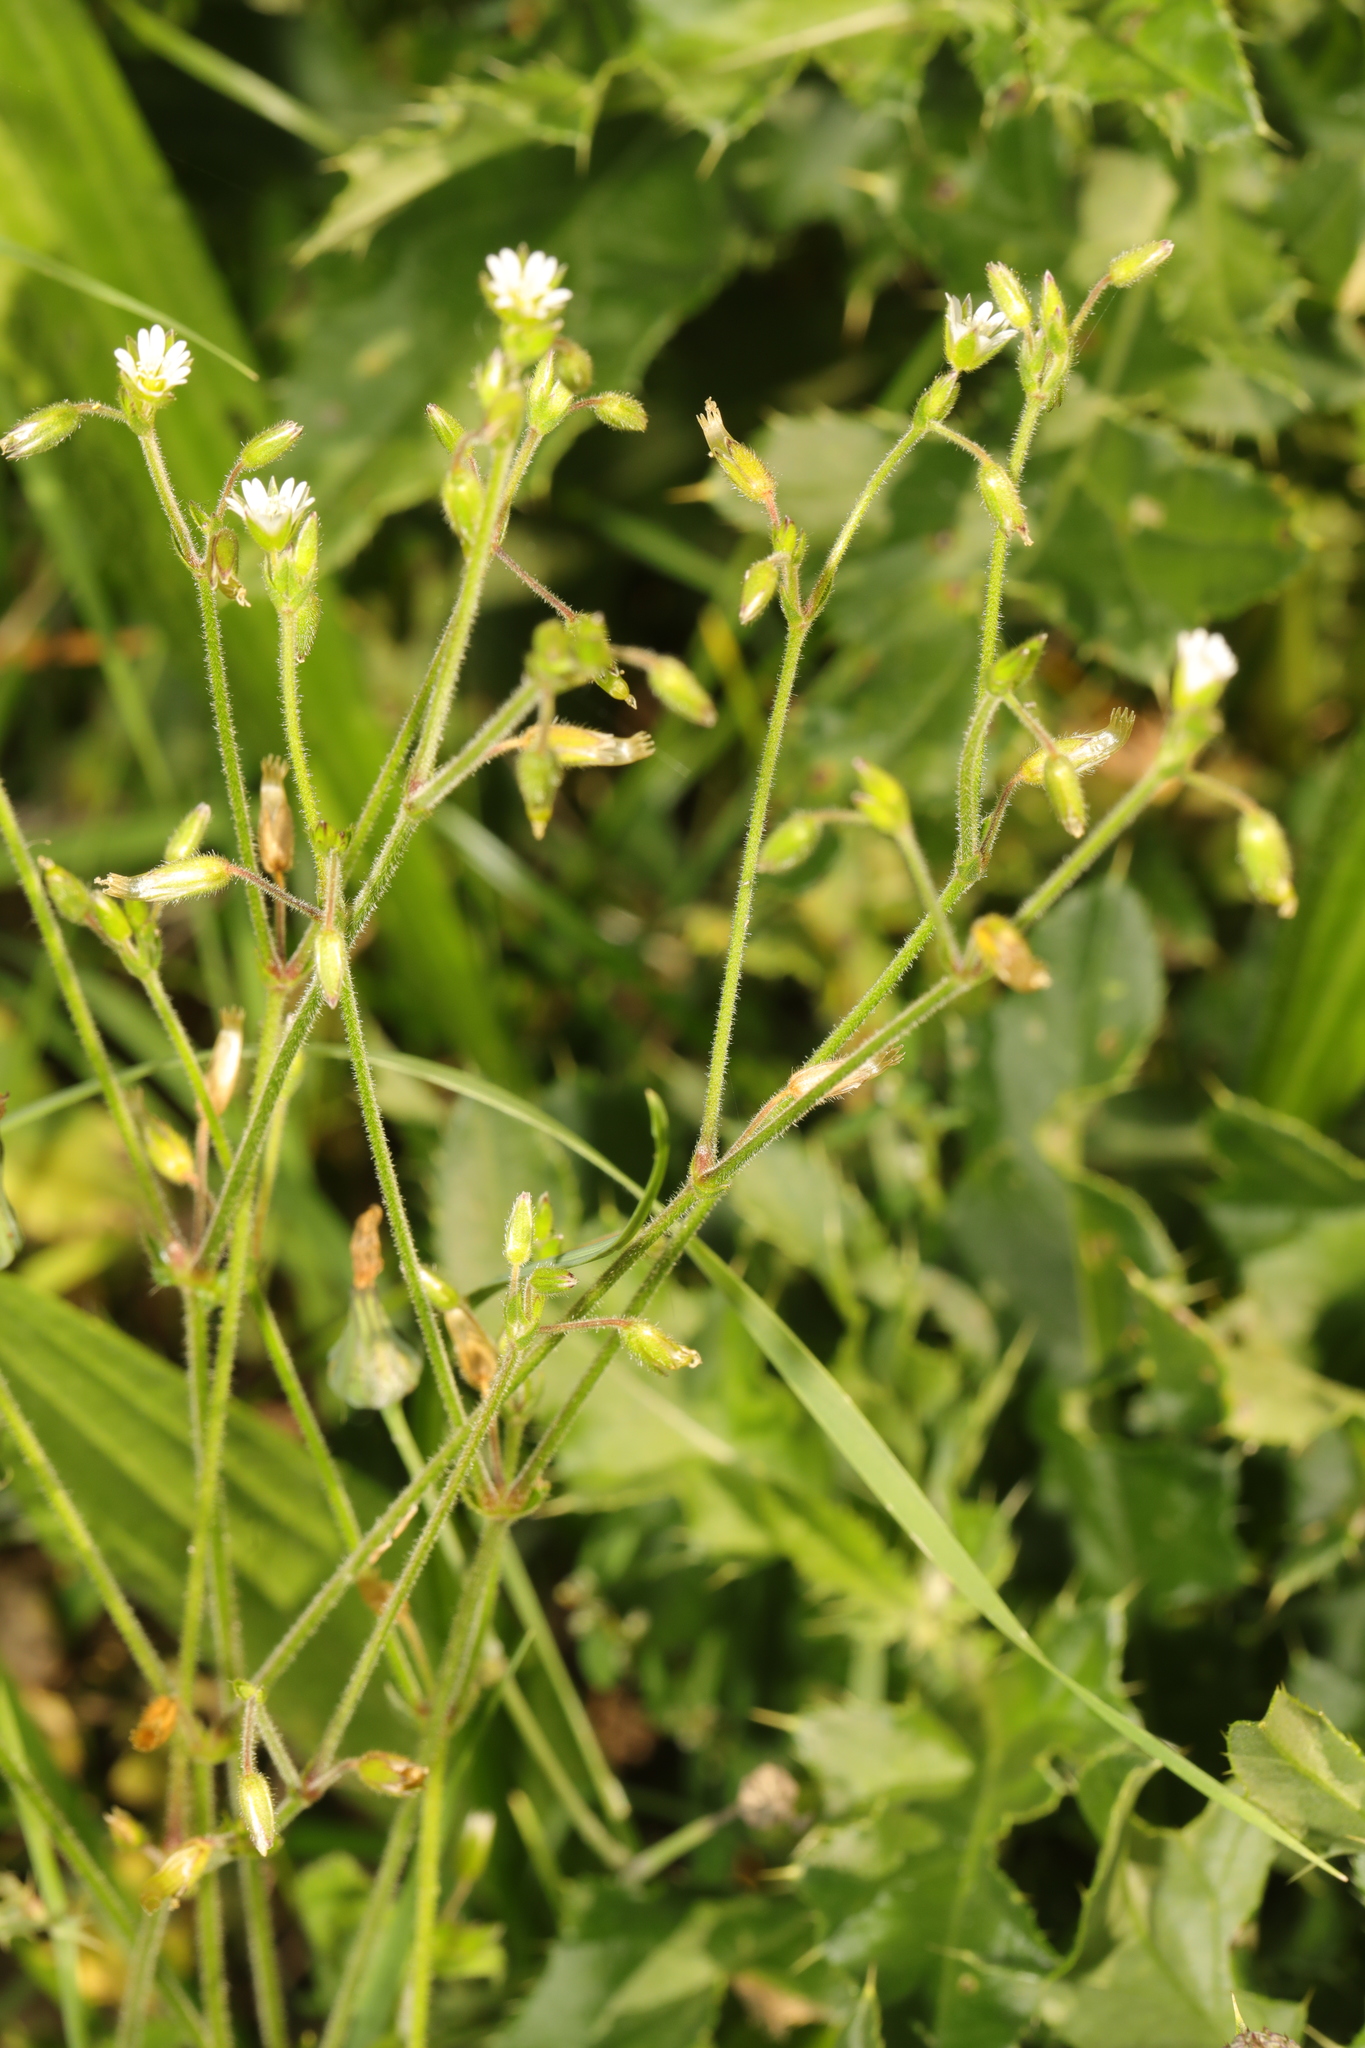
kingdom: Plantae
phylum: Tracheophyta
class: Magnoliopsida
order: Caryophyllales
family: Caryophyllaceae
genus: Cerastium
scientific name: Cerastium fontanum
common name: Common mouse-ear
